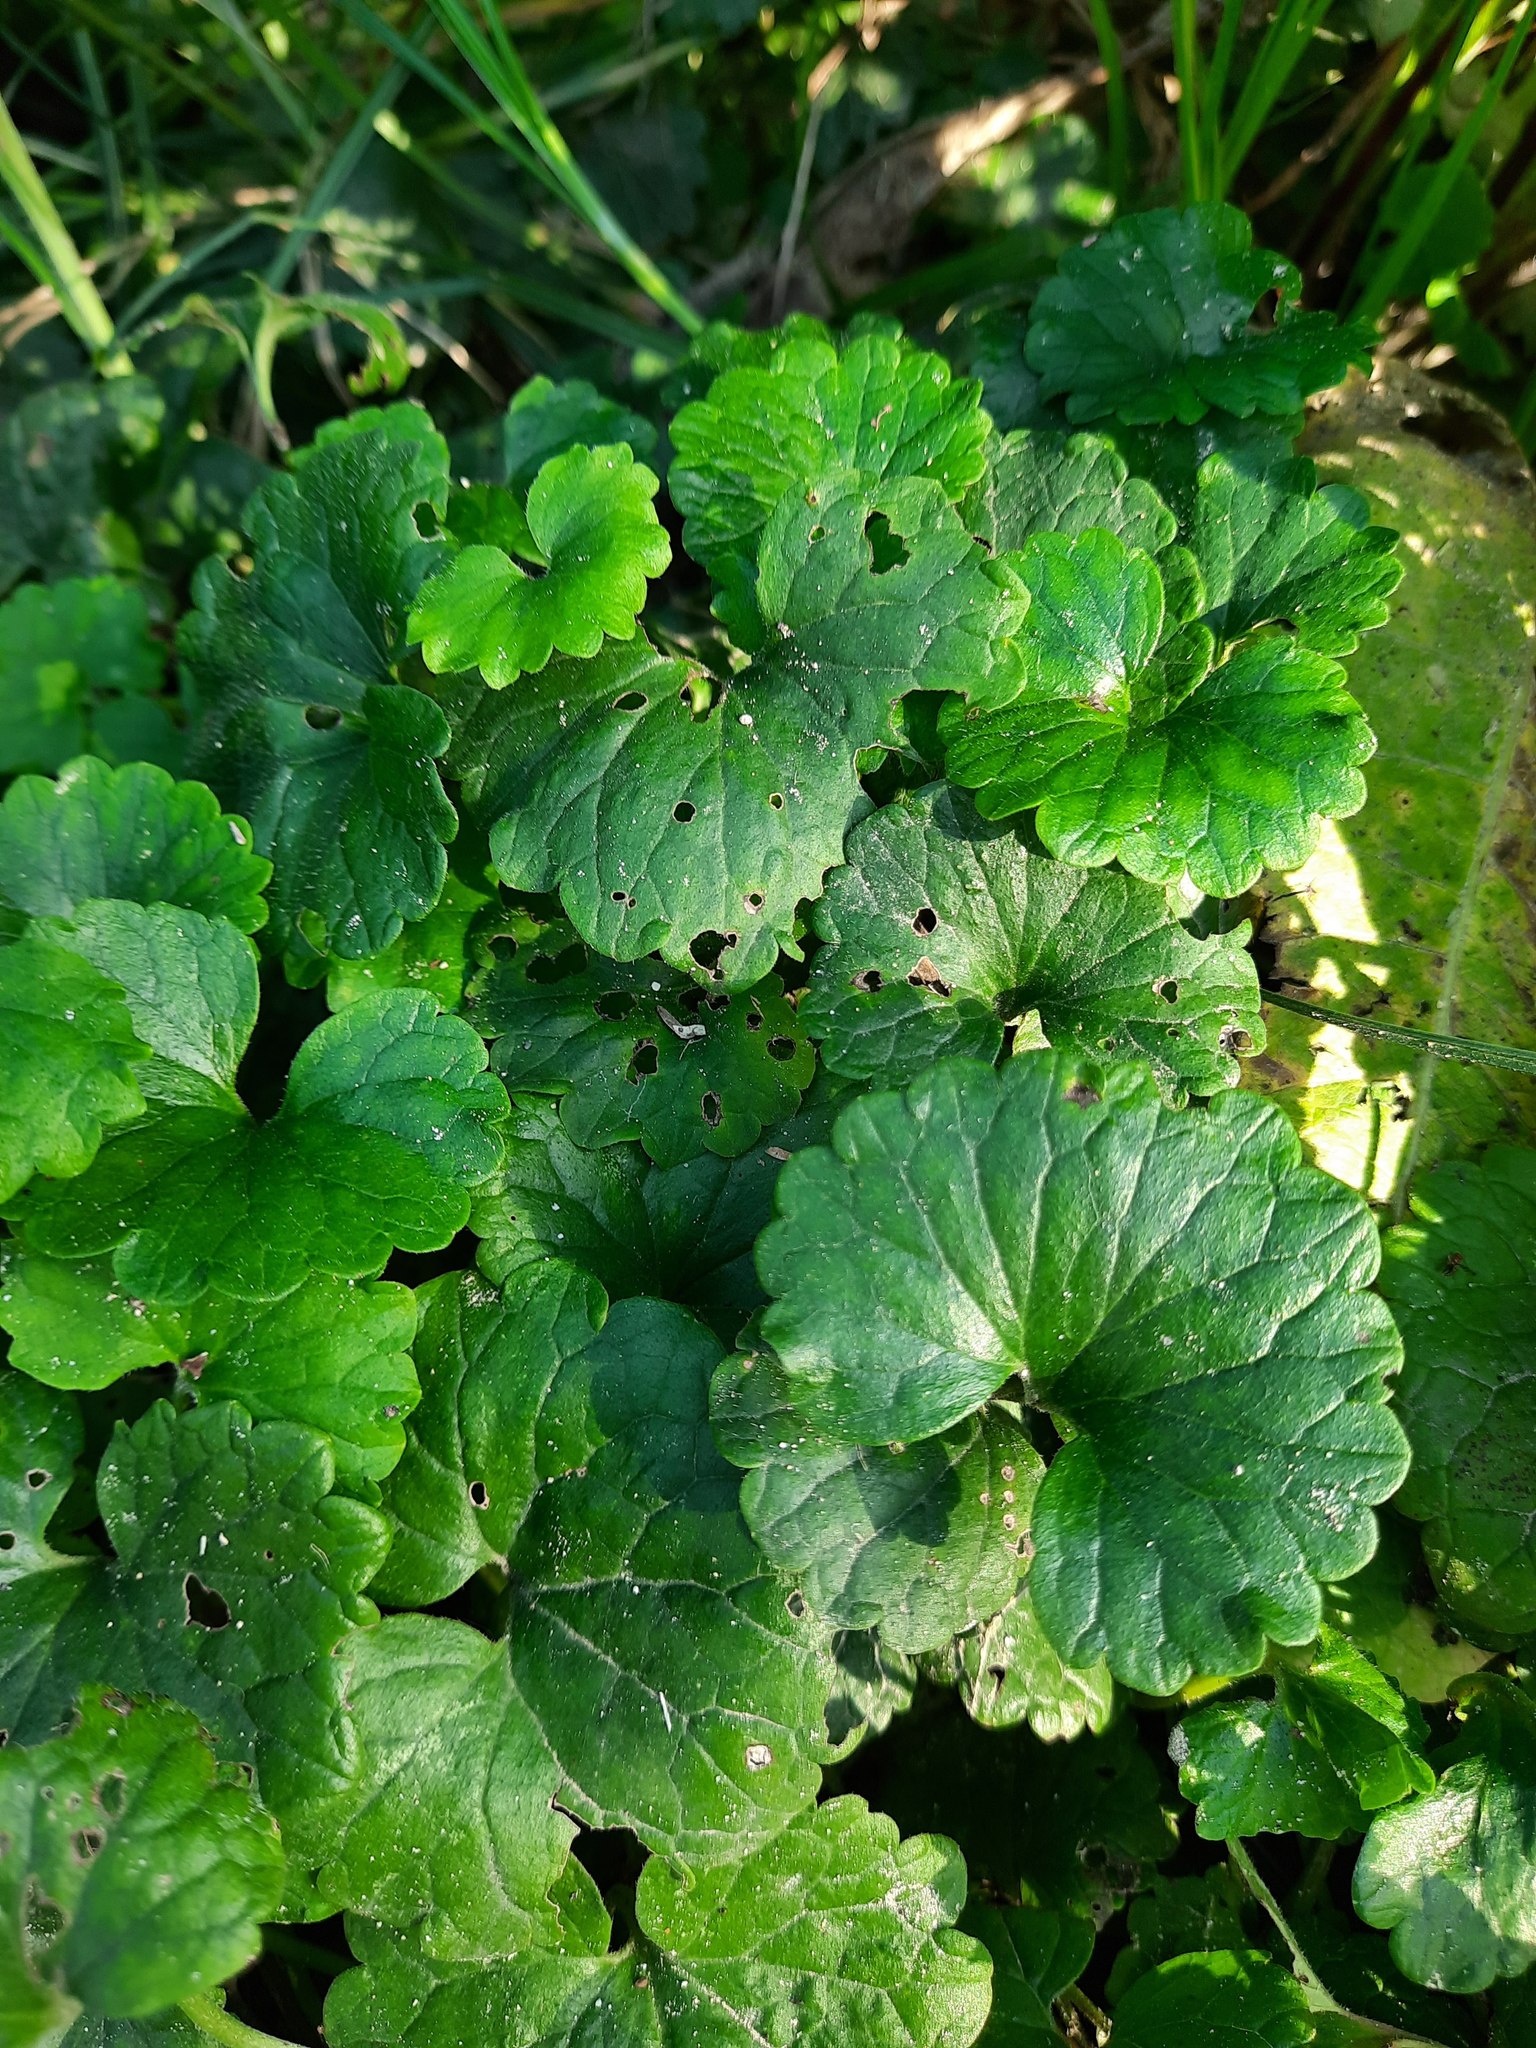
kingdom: Plantae
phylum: Tracheophyta
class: Magnoliopsida
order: Lamiales
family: Lamiaceae
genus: Glechoma
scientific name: Glechoma hederacea
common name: Ground ivy
